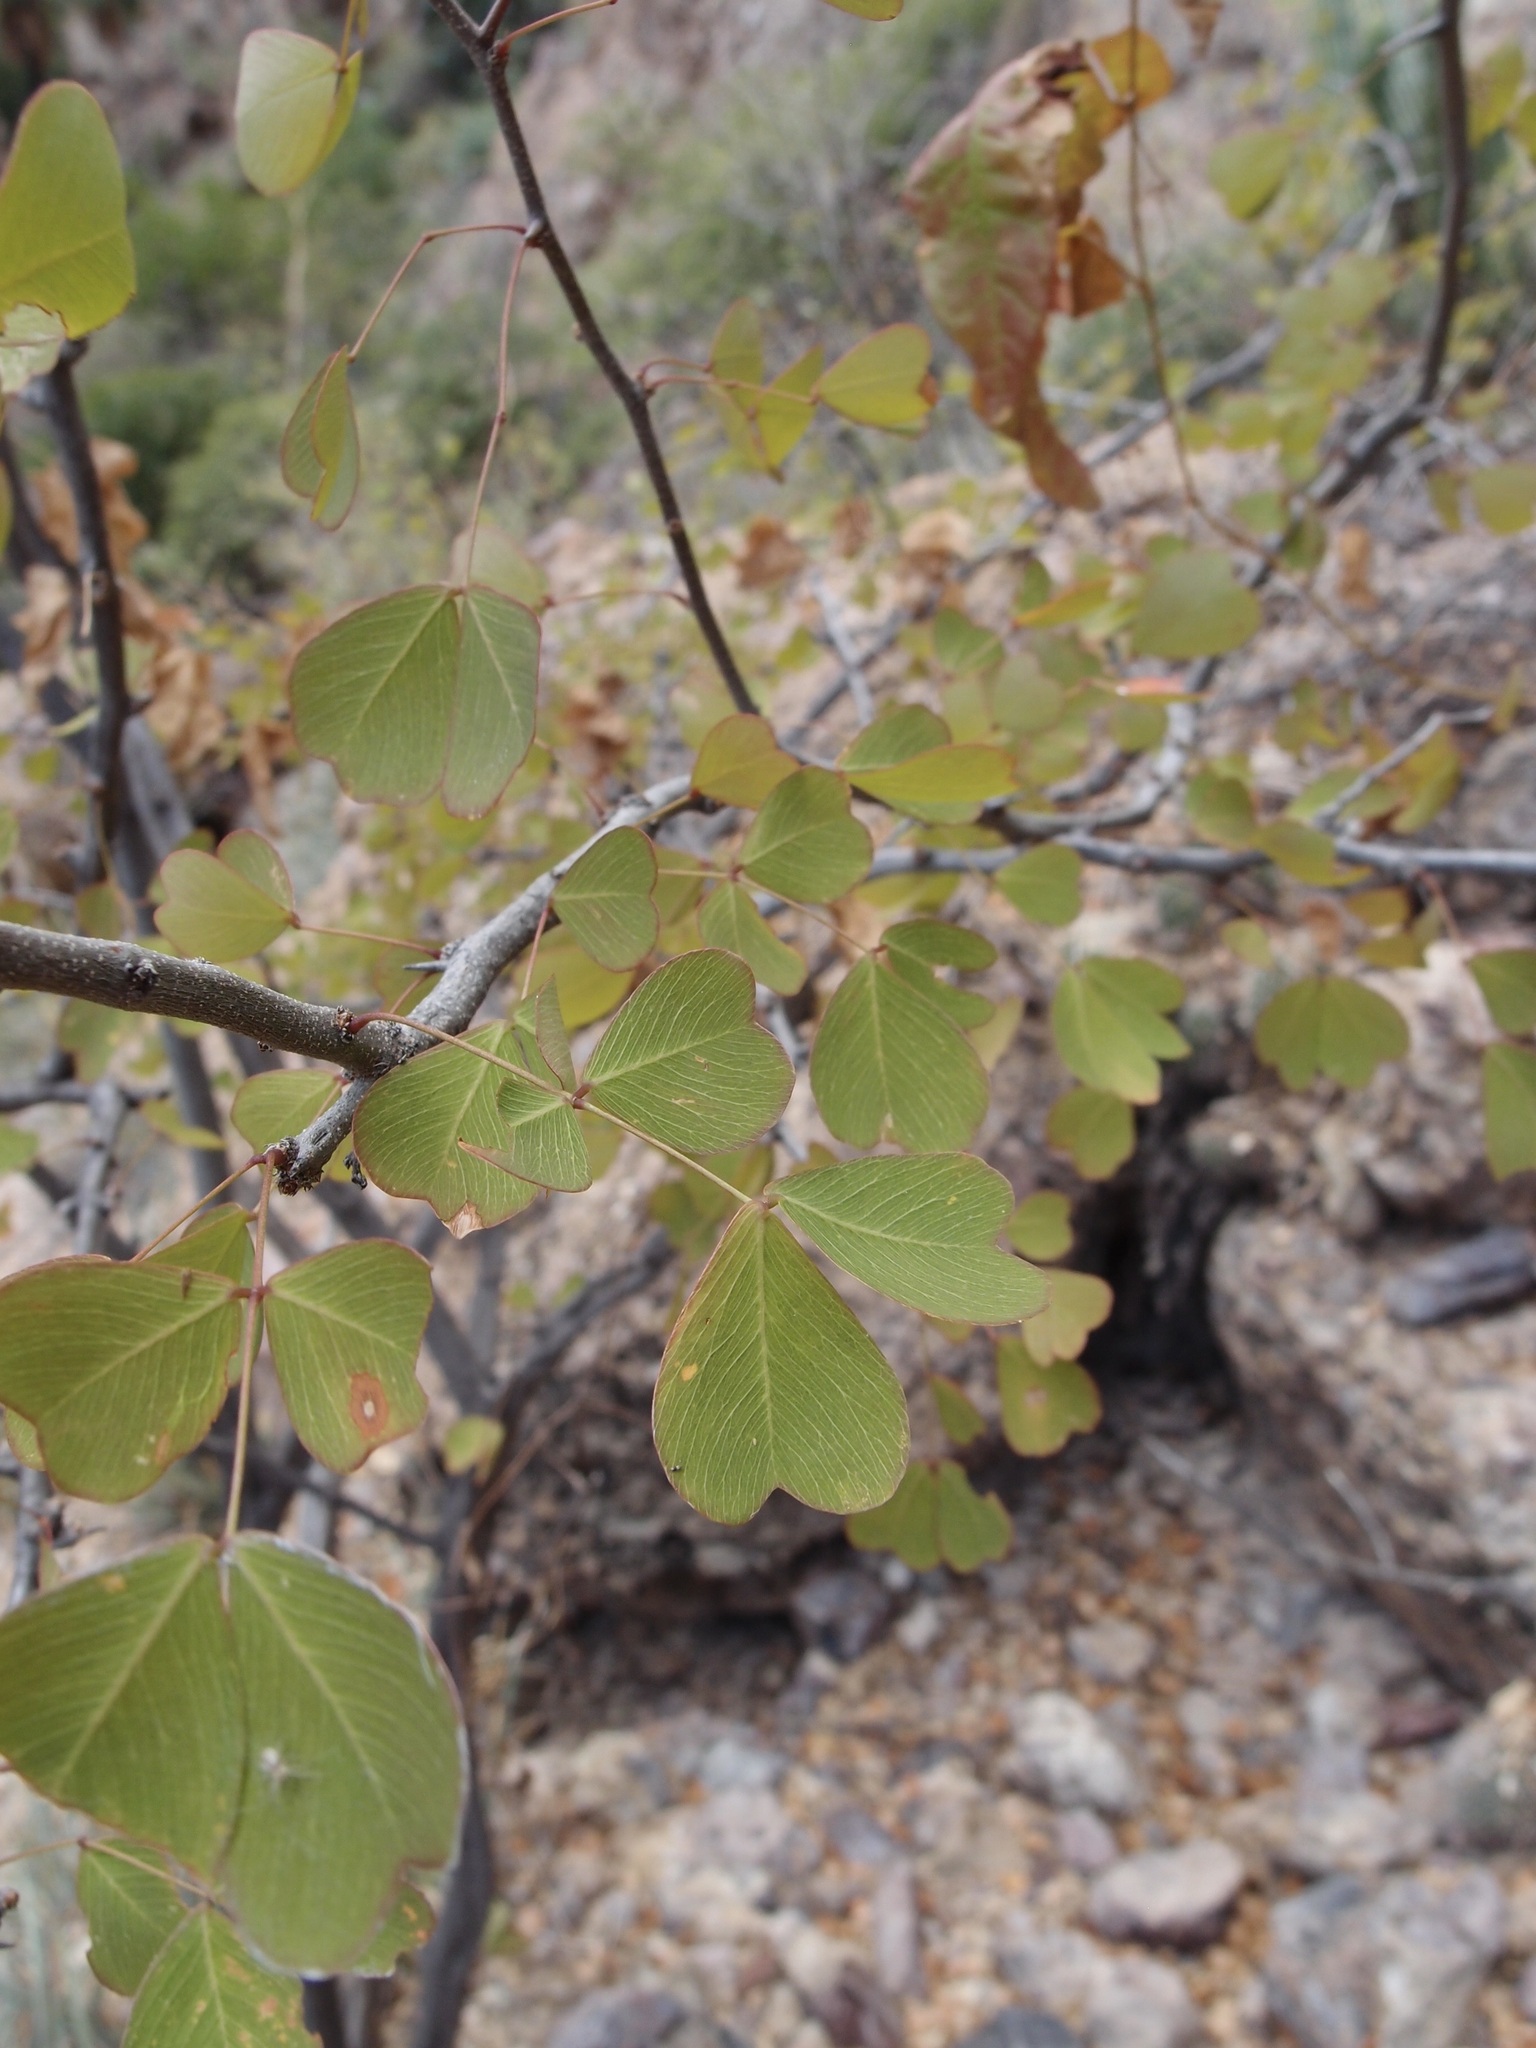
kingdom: Plantae
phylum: Tracheophyta
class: Magnoliopsida
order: Fabales
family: Fabaceae
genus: Haematoxylum
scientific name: Haematoxylum brasiletto
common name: Peachwood
